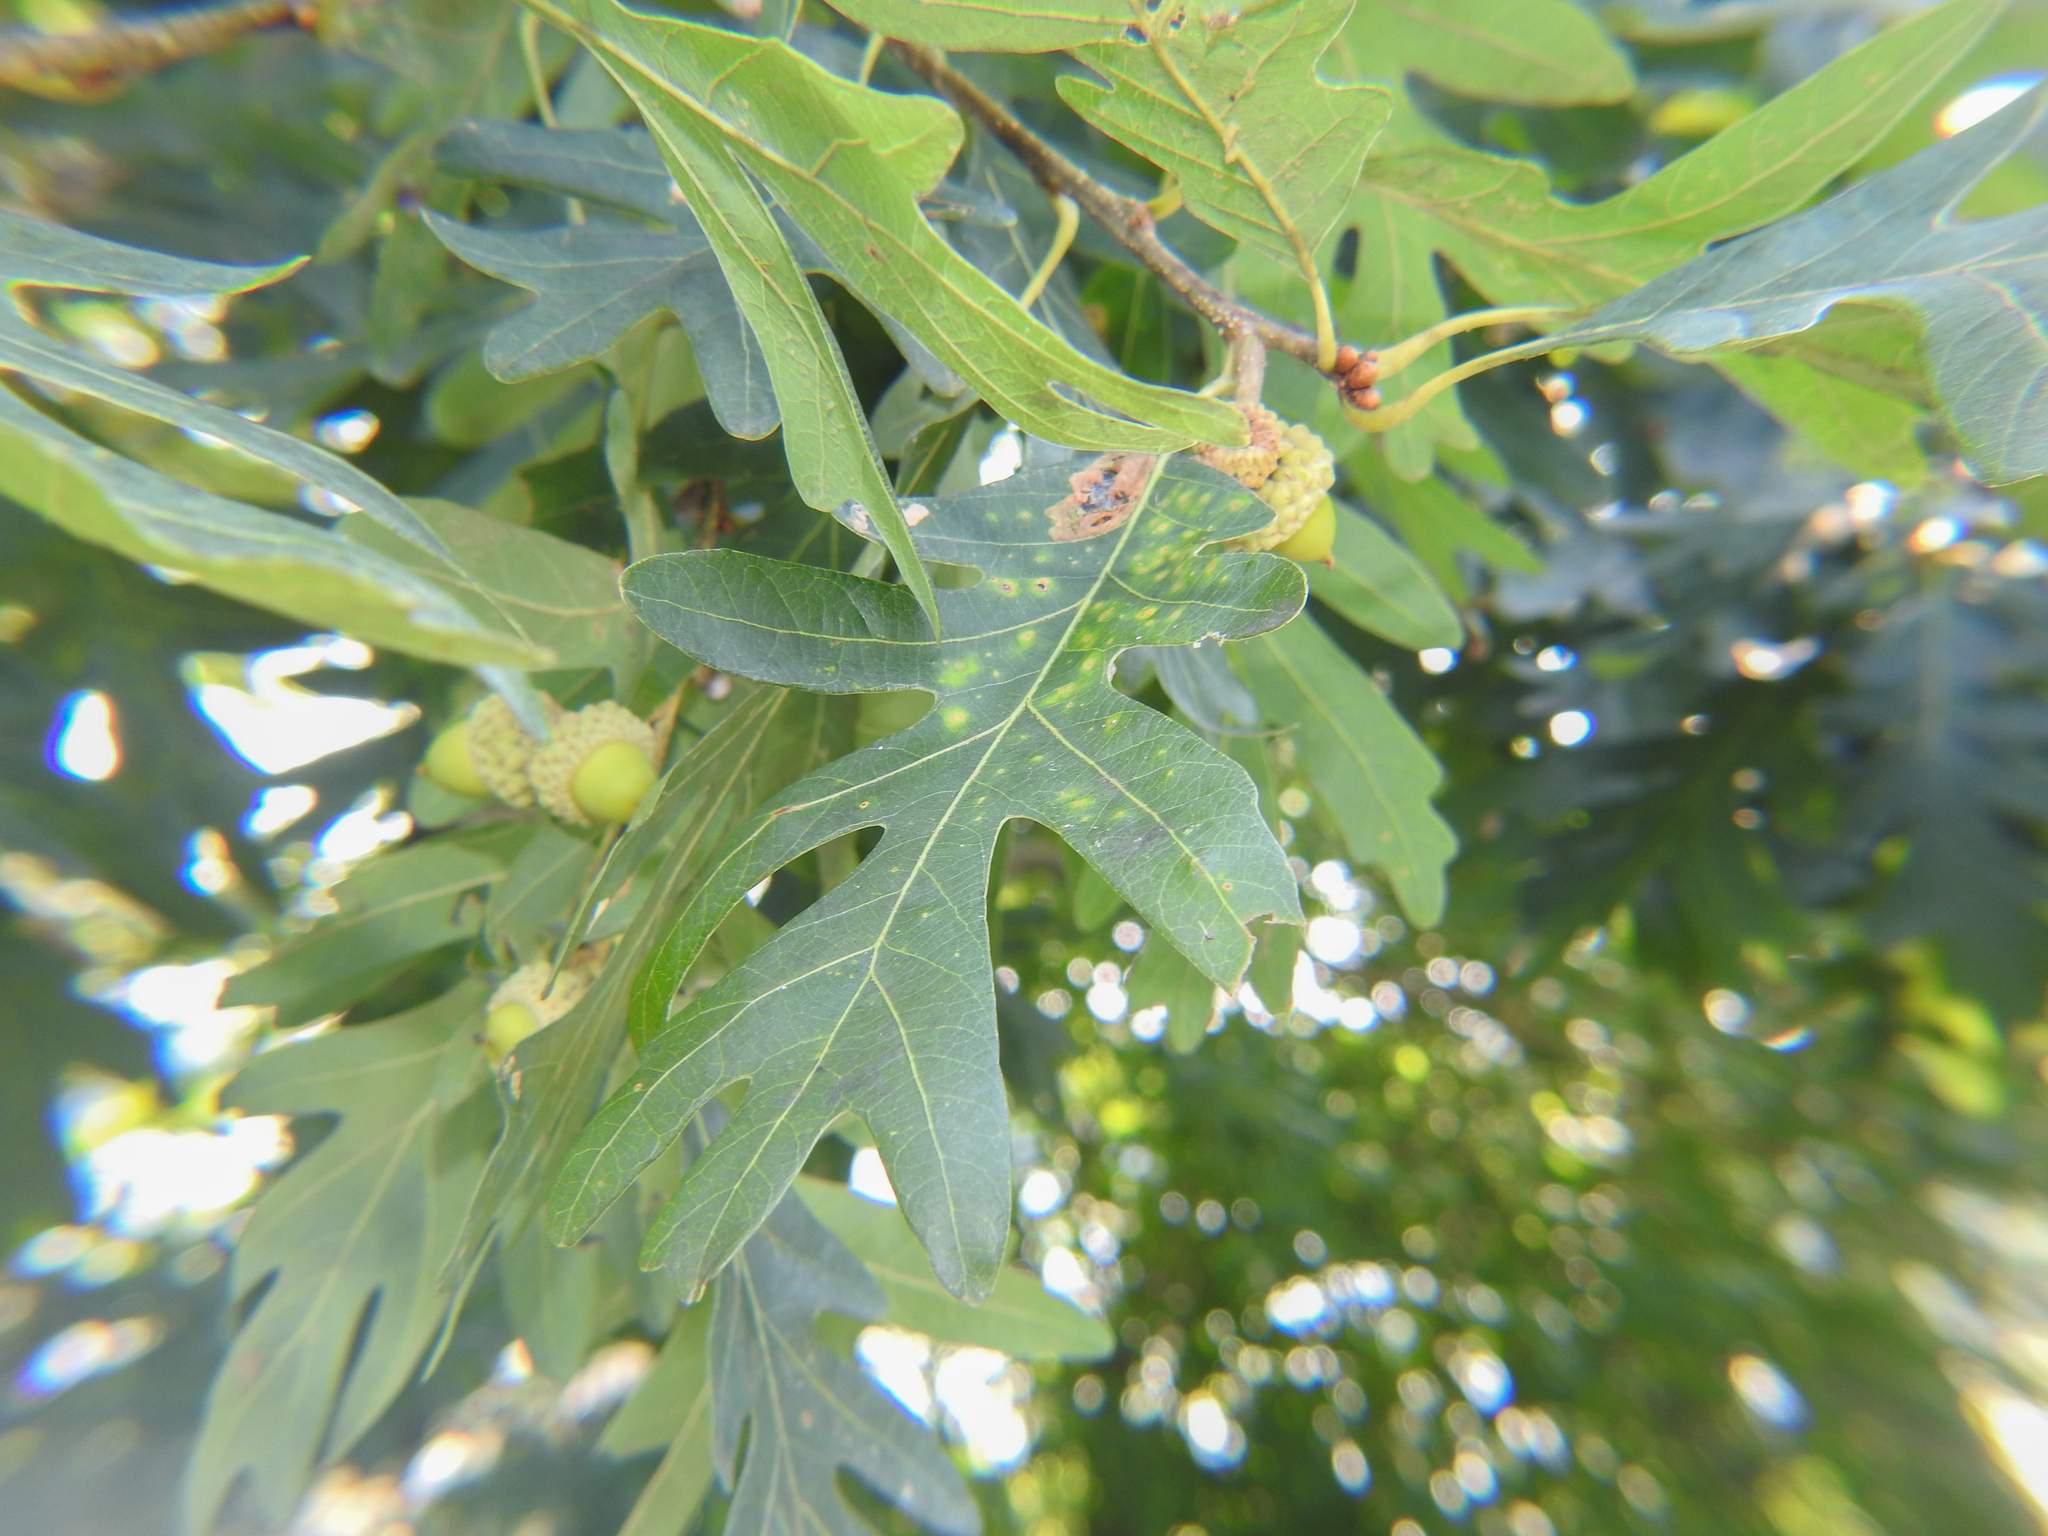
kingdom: Animalia
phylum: Arthropoda
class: Insecta
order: Hymenoptera
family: Cynipidae
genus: Phylloteras
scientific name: Phylloteras poculum
